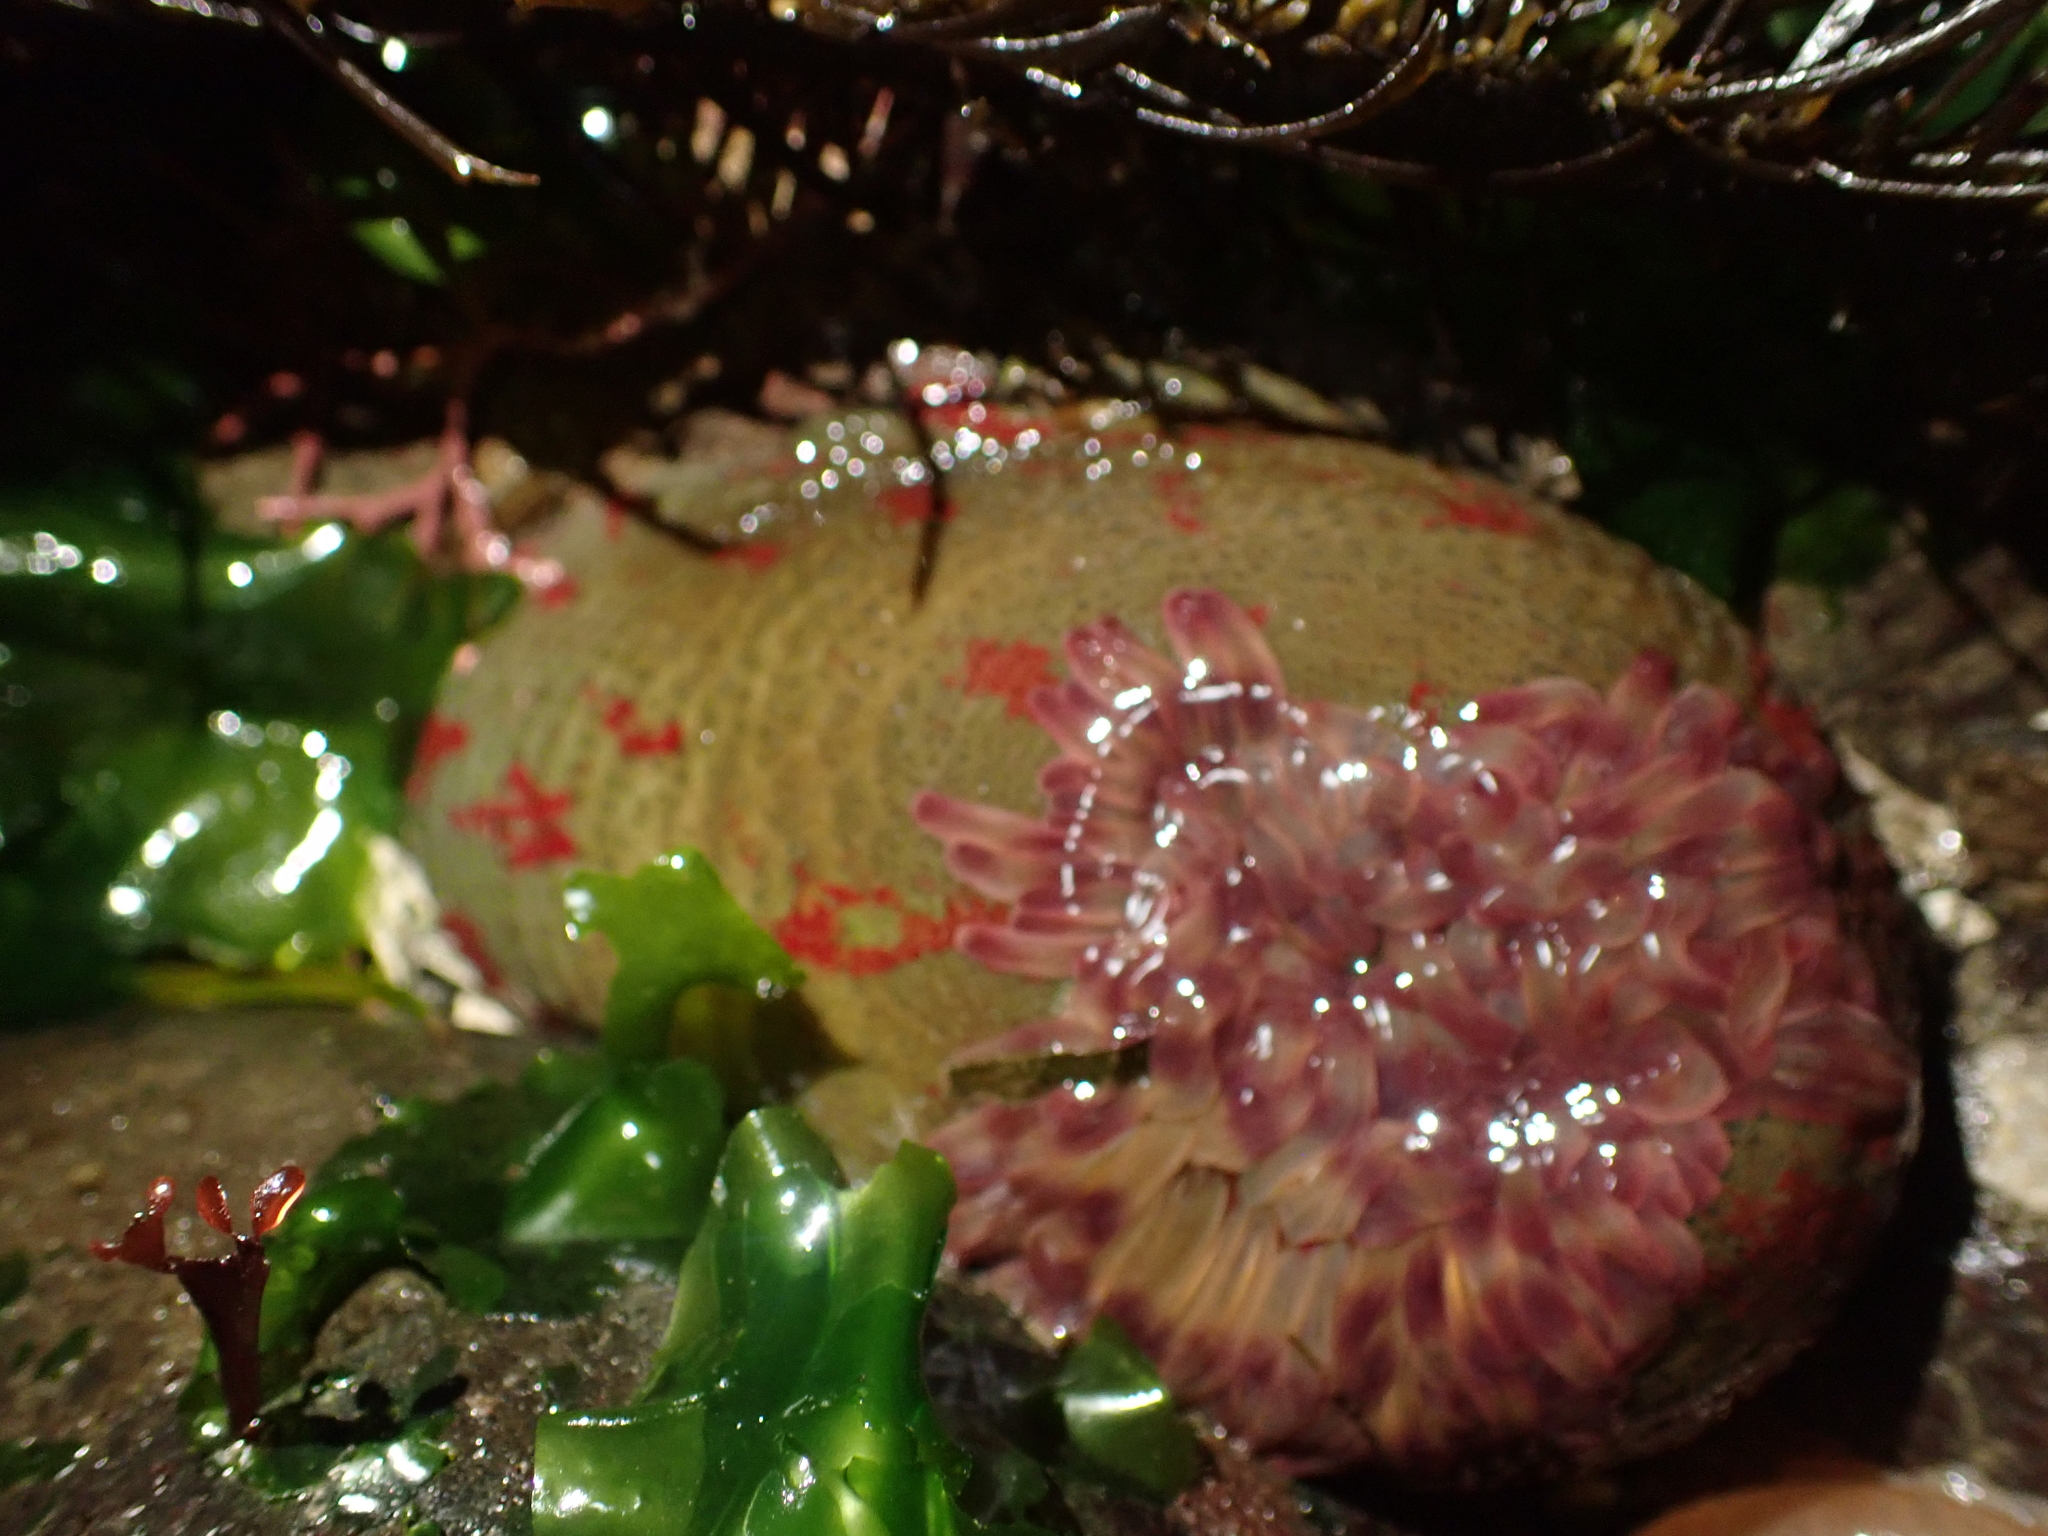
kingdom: Animalia
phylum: Cnidaria
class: Anthozoa
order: Actiniaria
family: Actiniidae
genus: Urticina
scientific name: Urticina grebelnyi
